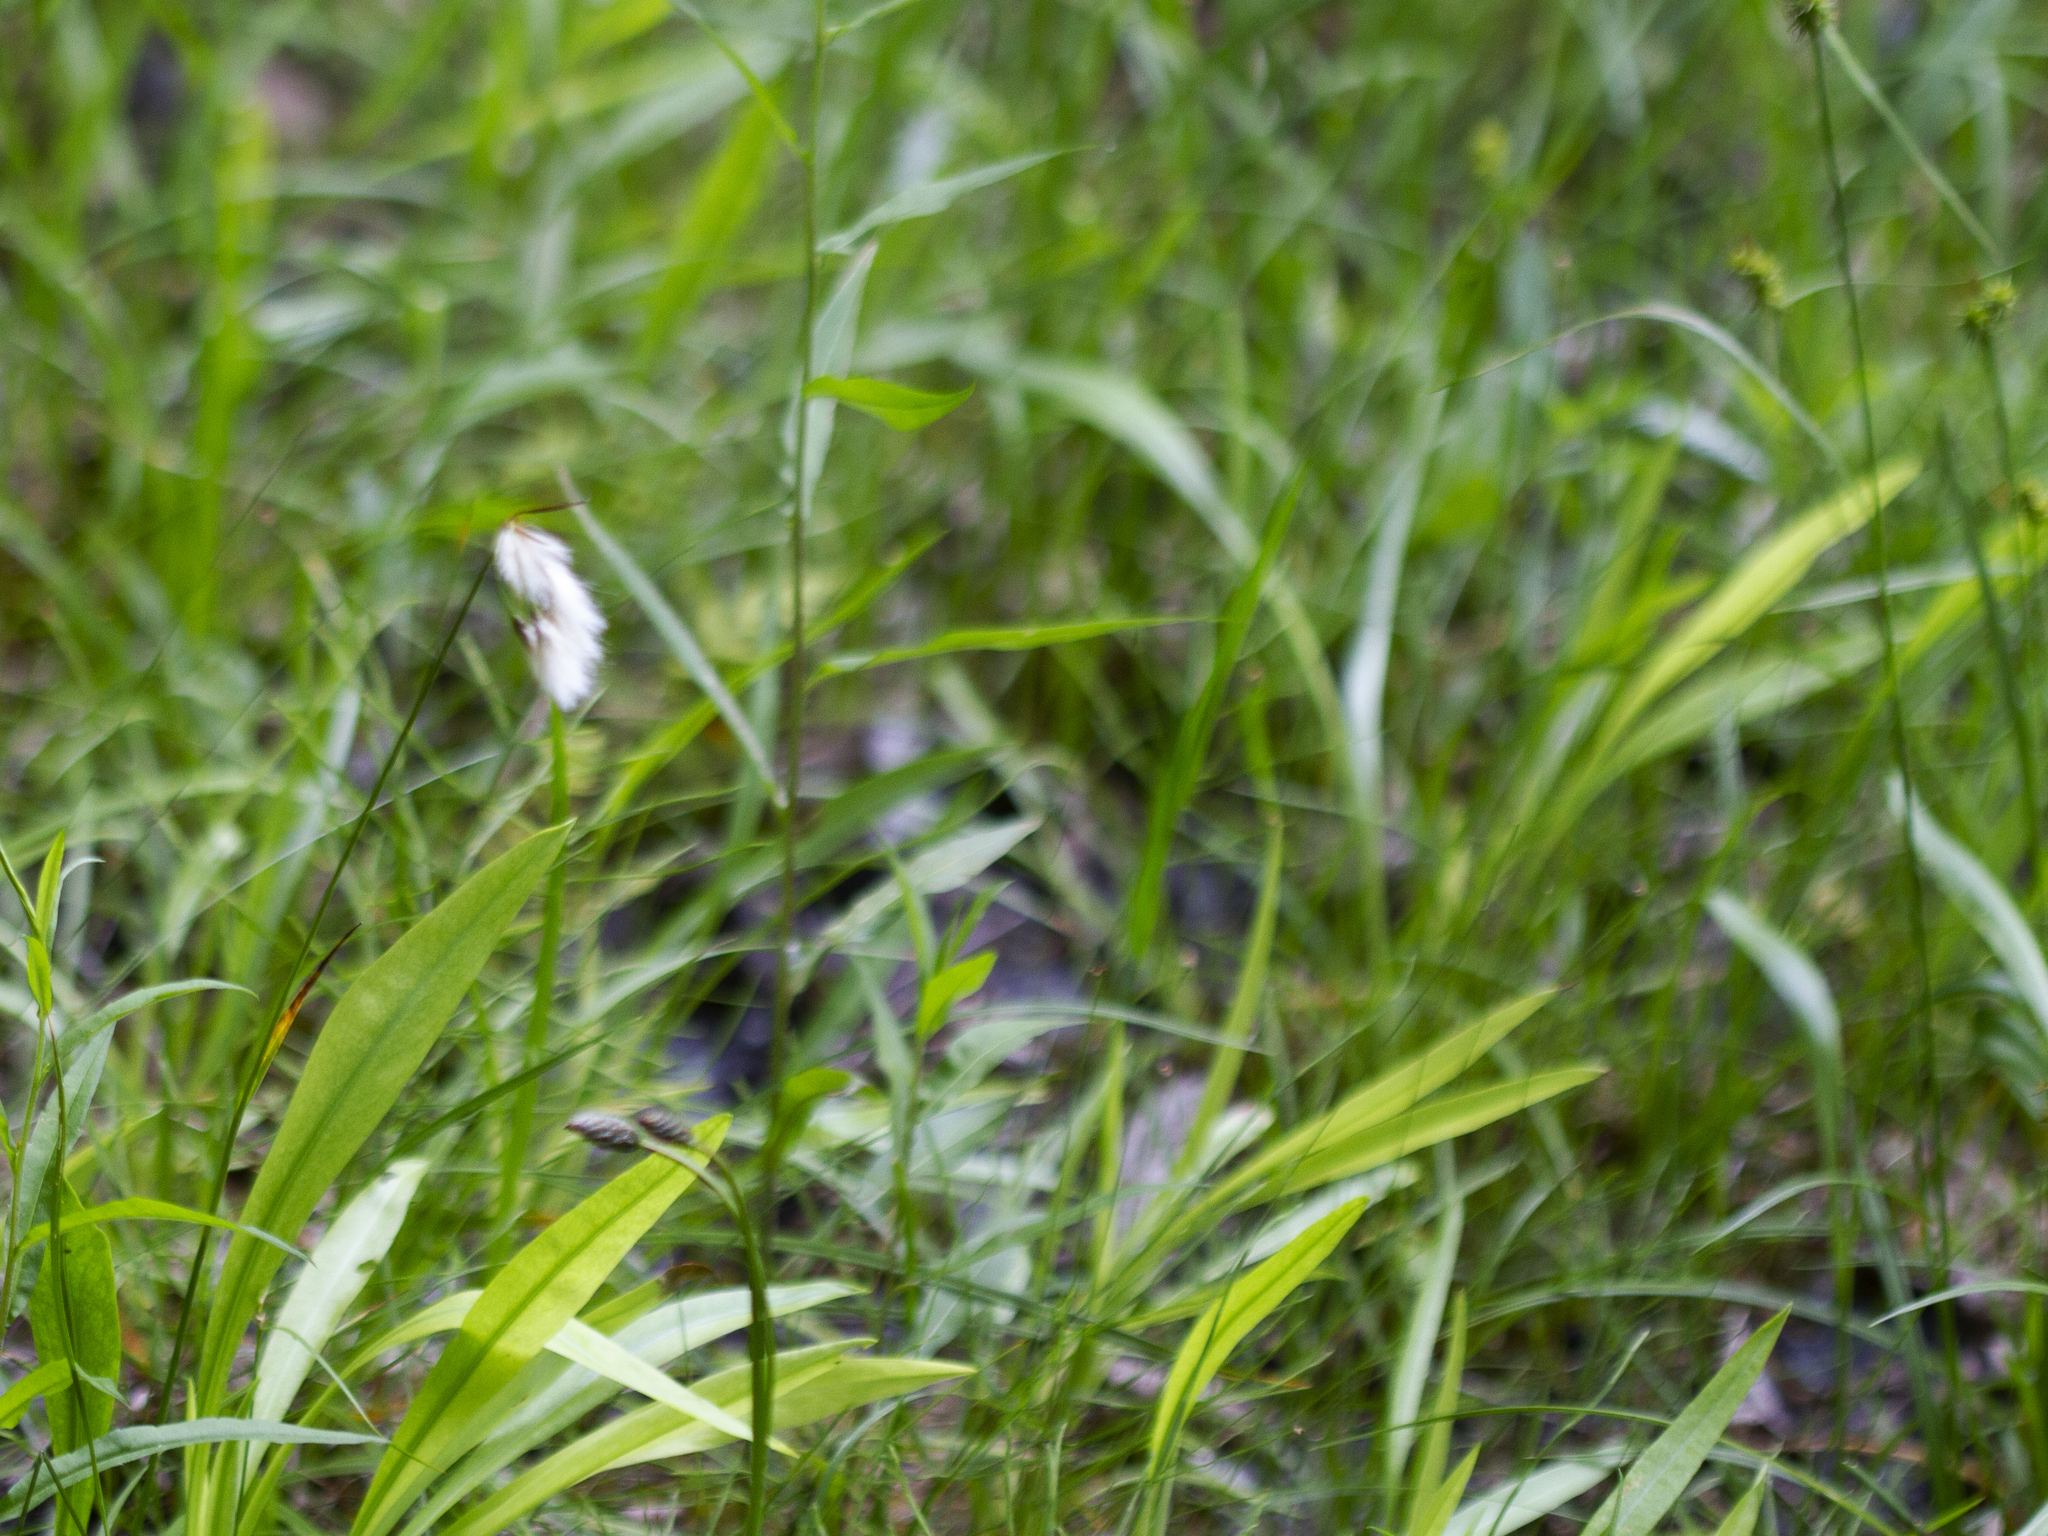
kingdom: Plantae
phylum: Tracheophyta
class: Magnoliopsida
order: Asterales
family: Asteraceae
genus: Solidago
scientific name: Solidago ohioensis
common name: Ohio goldenrod
